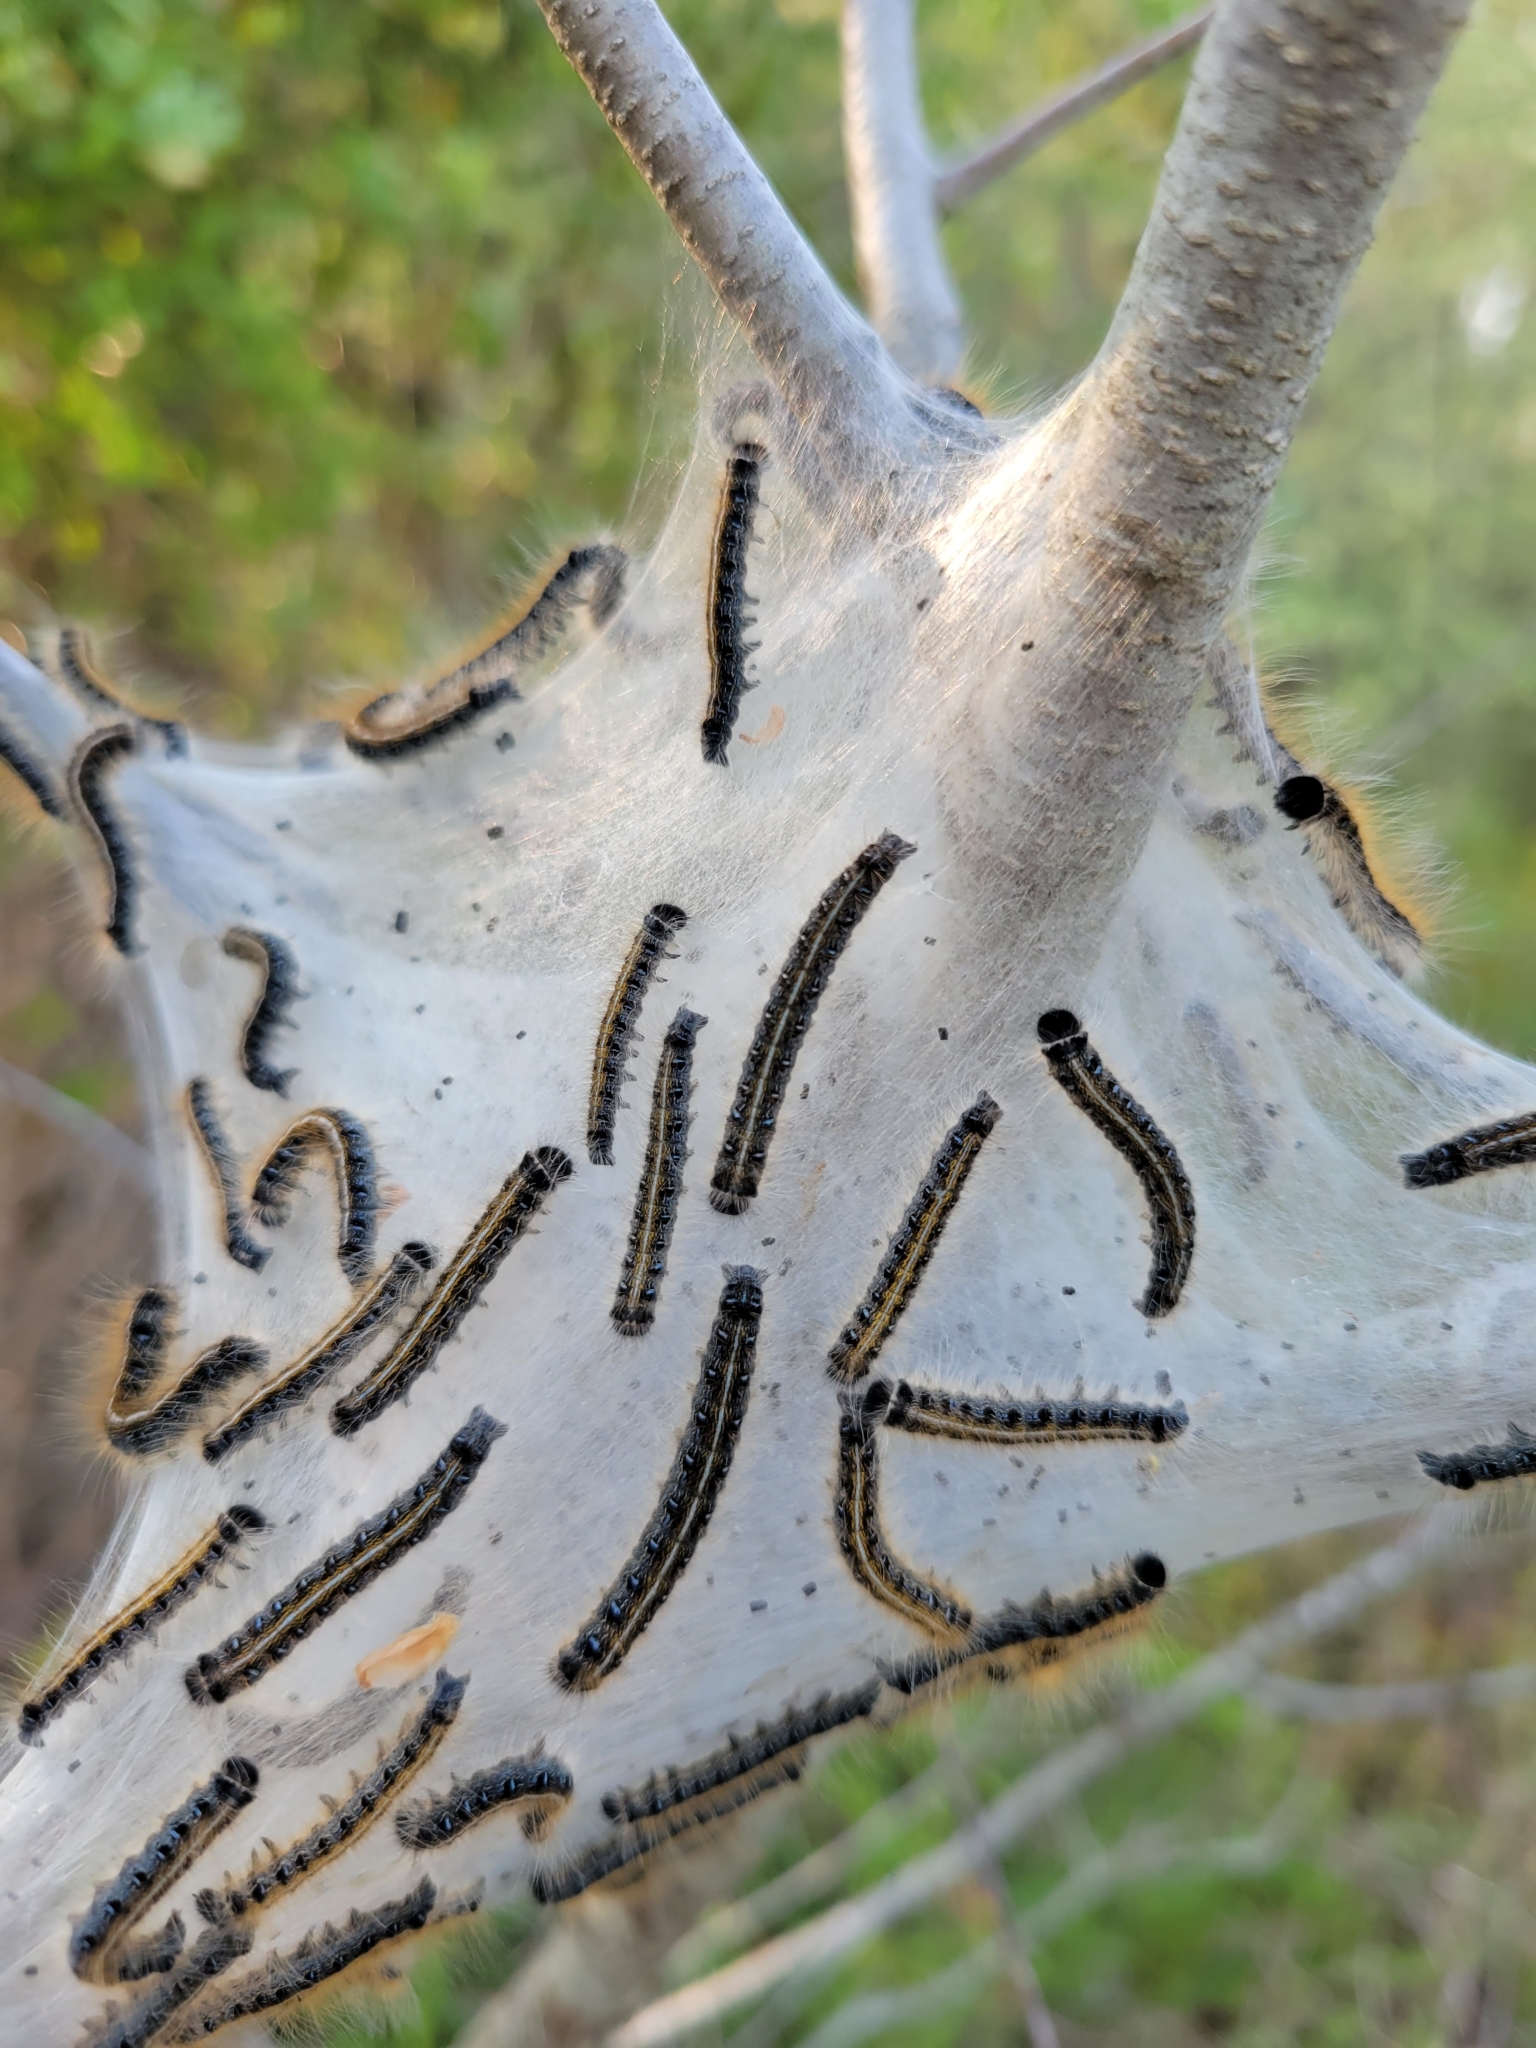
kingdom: Animalia
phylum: Arthropoda
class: Insecta
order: Lepidoptera
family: Lasiocampidae
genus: Malacosoma
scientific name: Malacosoma americana
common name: Eastern tent caterpillar moth
